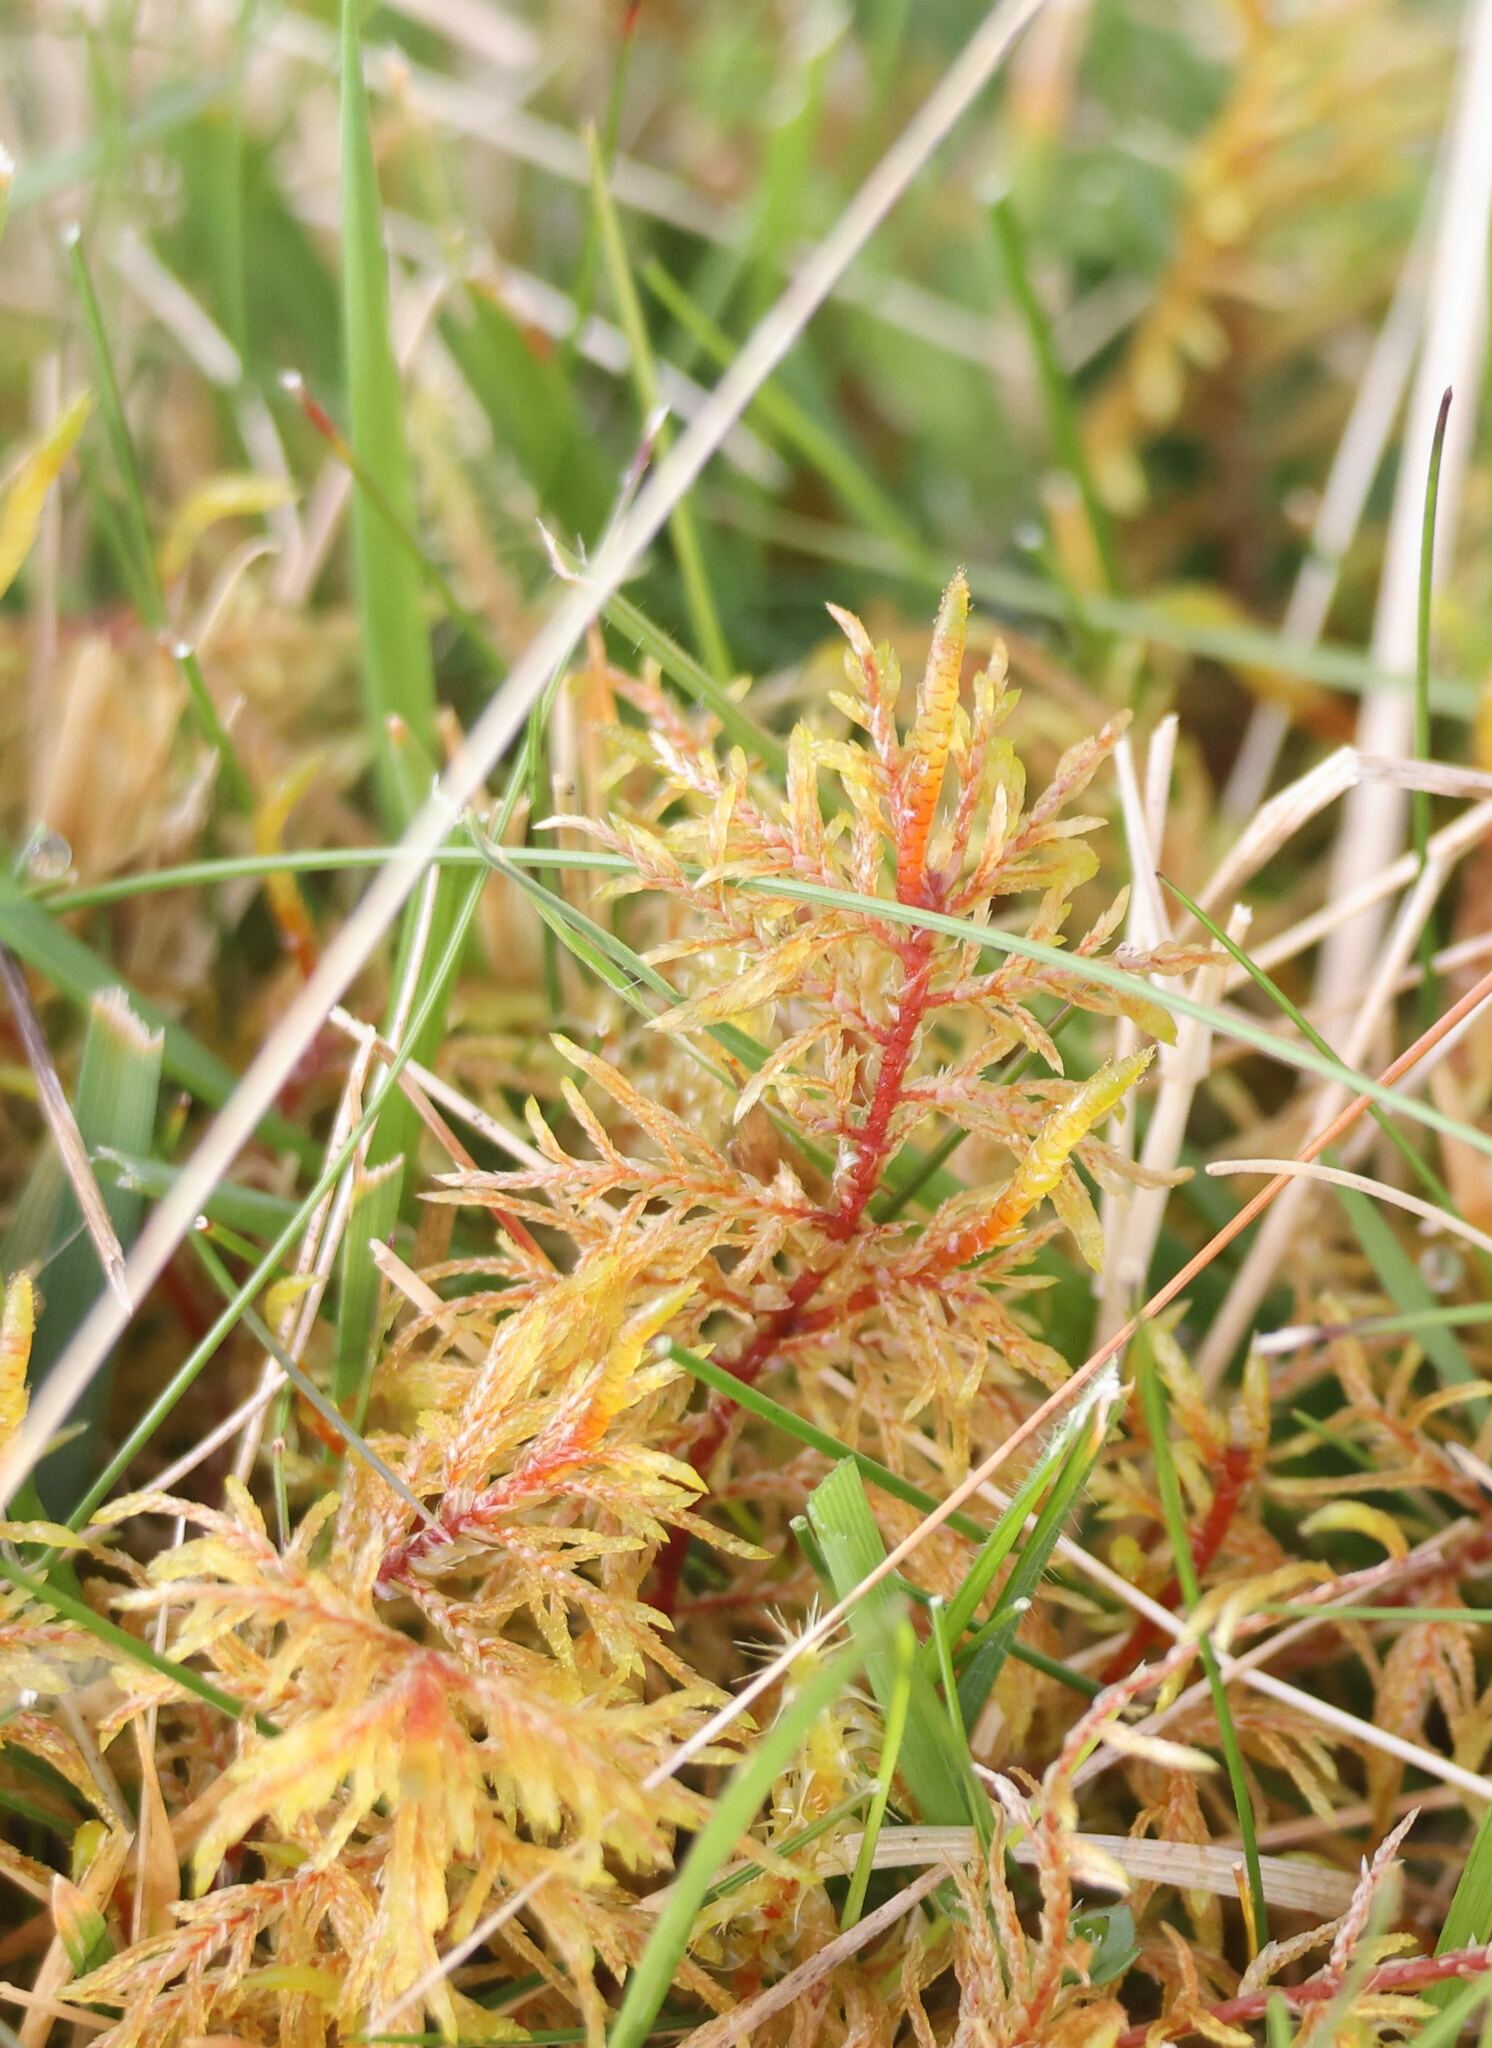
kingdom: Plantae
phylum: Bryophyta
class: Bryopsida
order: Hypnales
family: Hylocomiaceae
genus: Hylocomium
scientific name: Hylocomium splendens
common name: Stairstep moss
